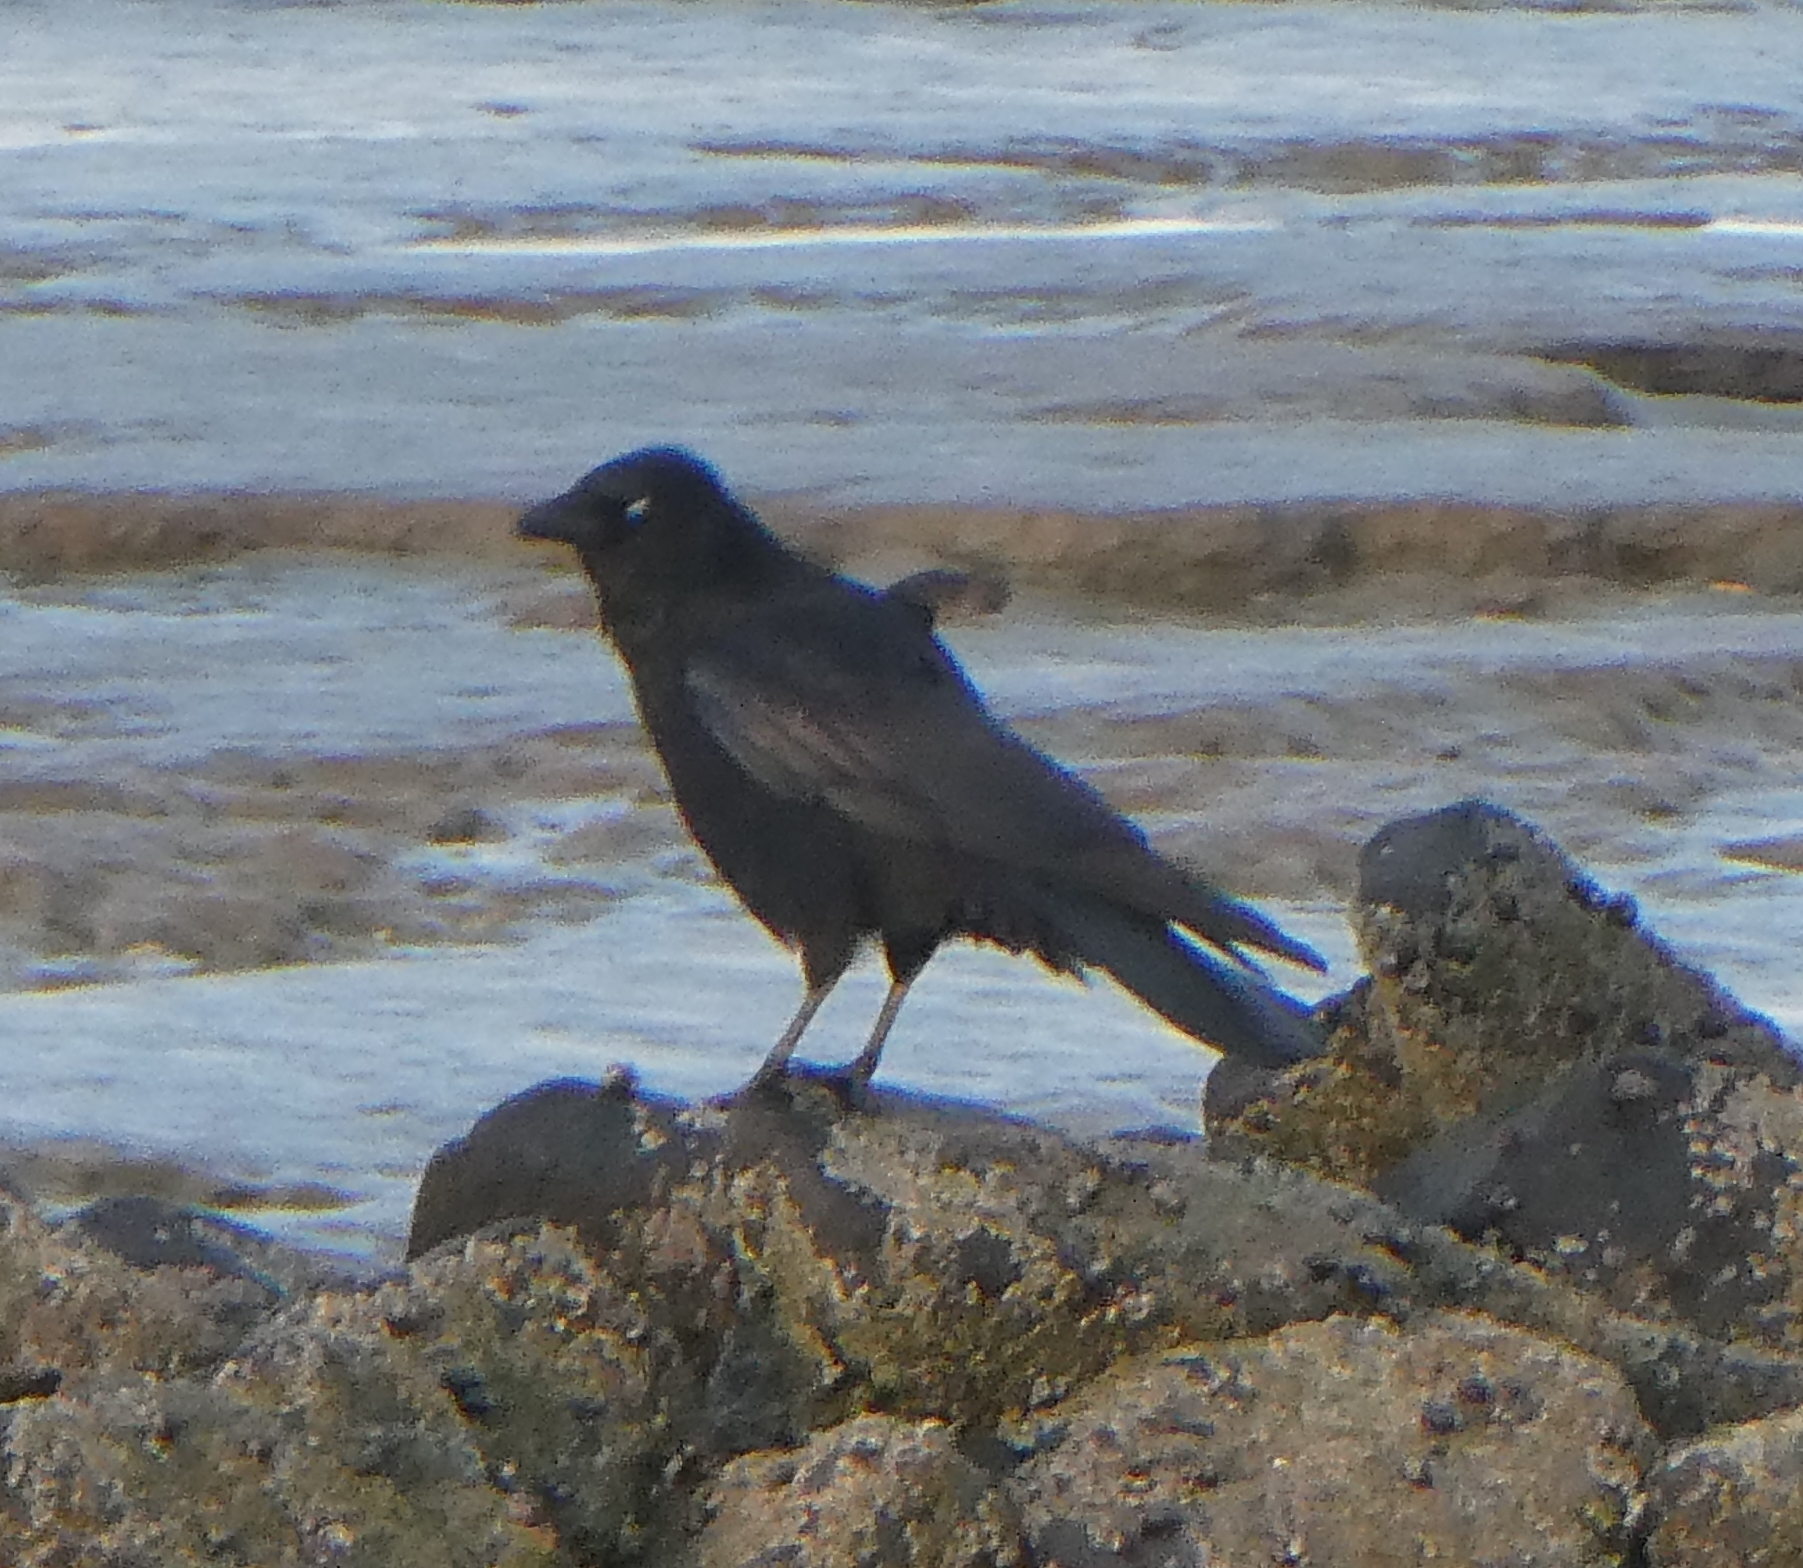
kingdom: Animalia
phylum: Chordata
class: Aves
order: Passeriformes
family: Corvidae
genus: Coloeus
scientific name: Coloeus monedula
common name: Western jackdaw
